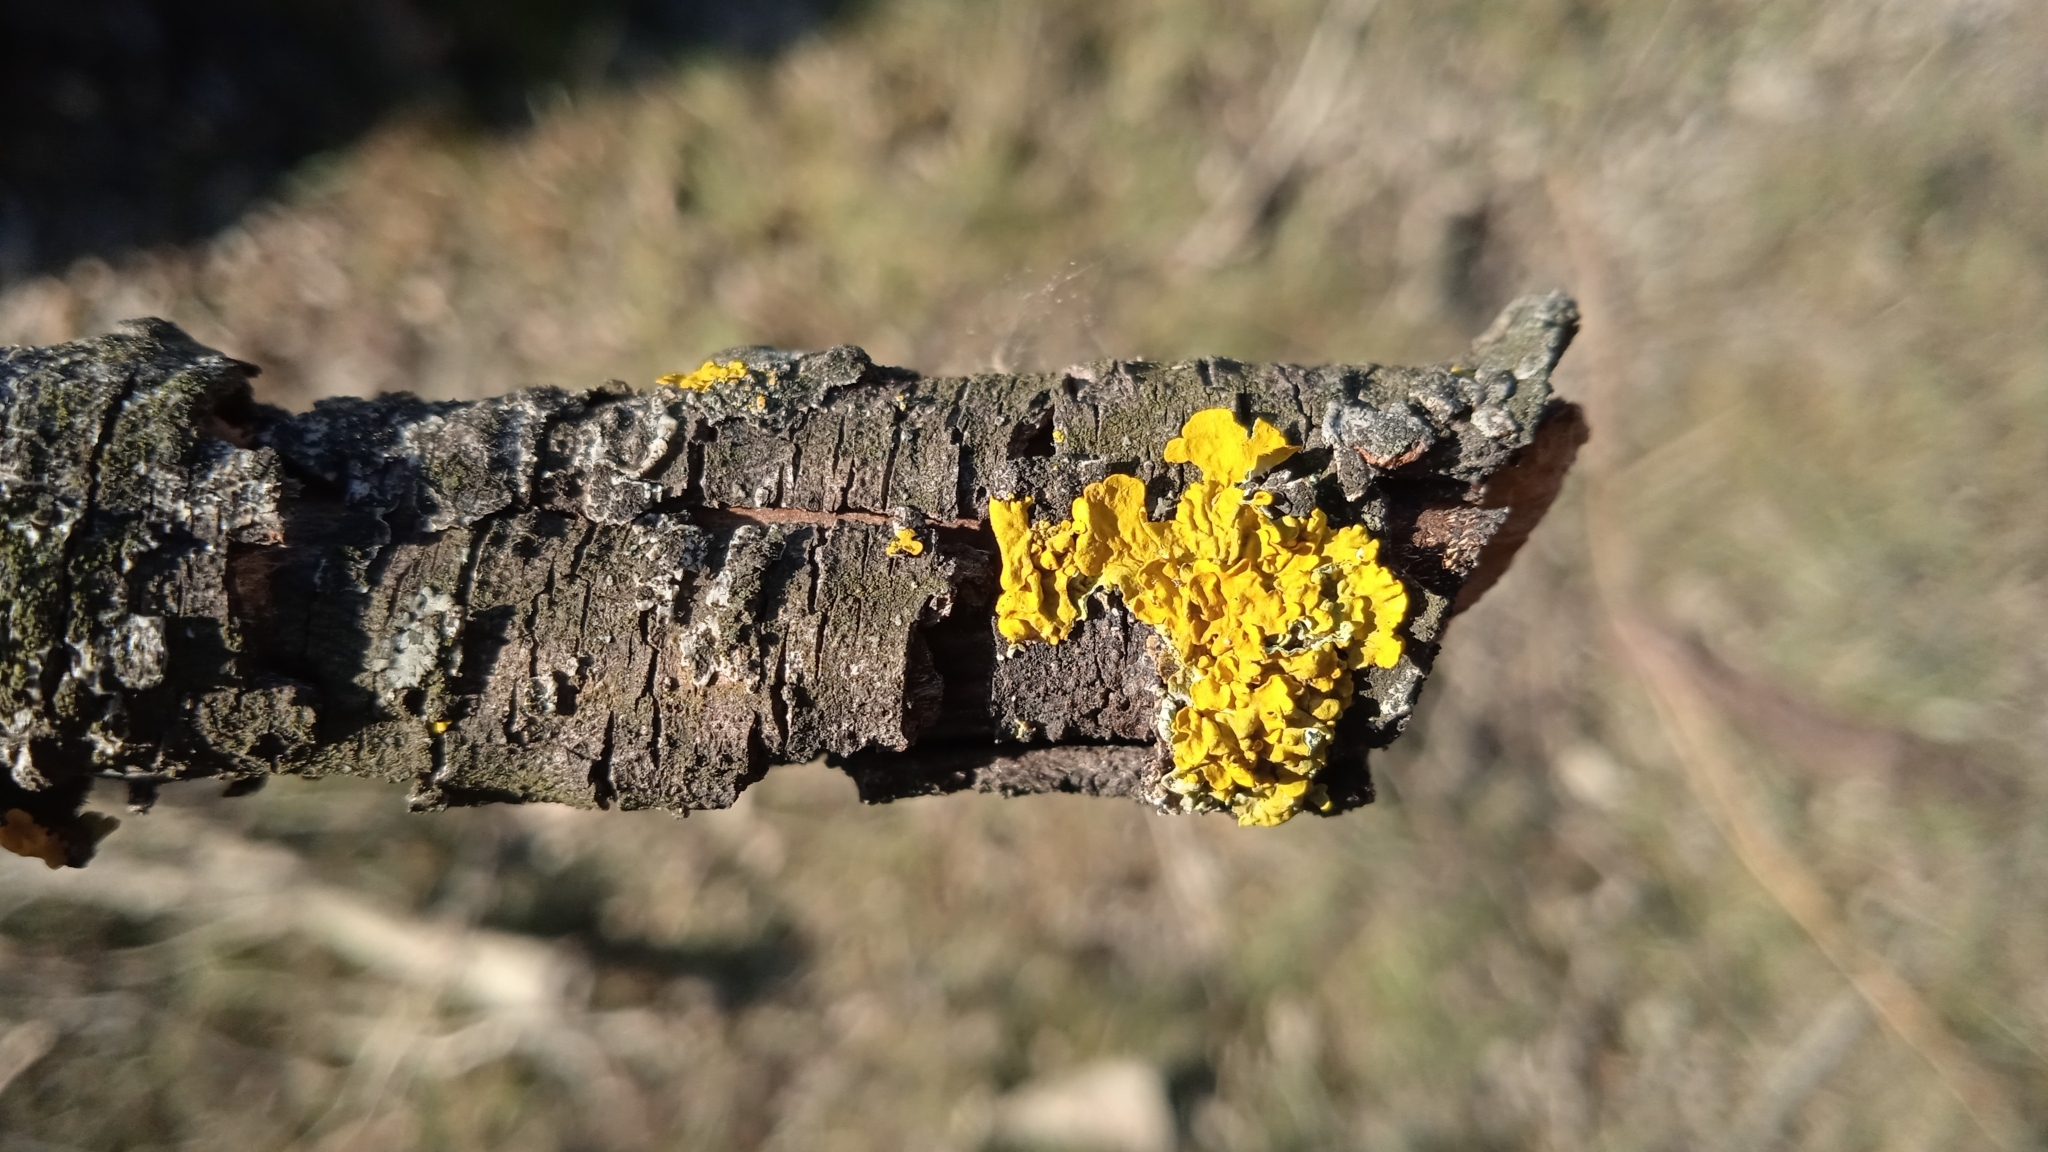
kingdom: Fungi
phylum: Ascomycota
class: Lecanoromycetes
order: Teloschistales
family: Teloschistaceae
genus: Xanthoria
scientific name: Xanthoria parietina
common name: Common orange lichen
